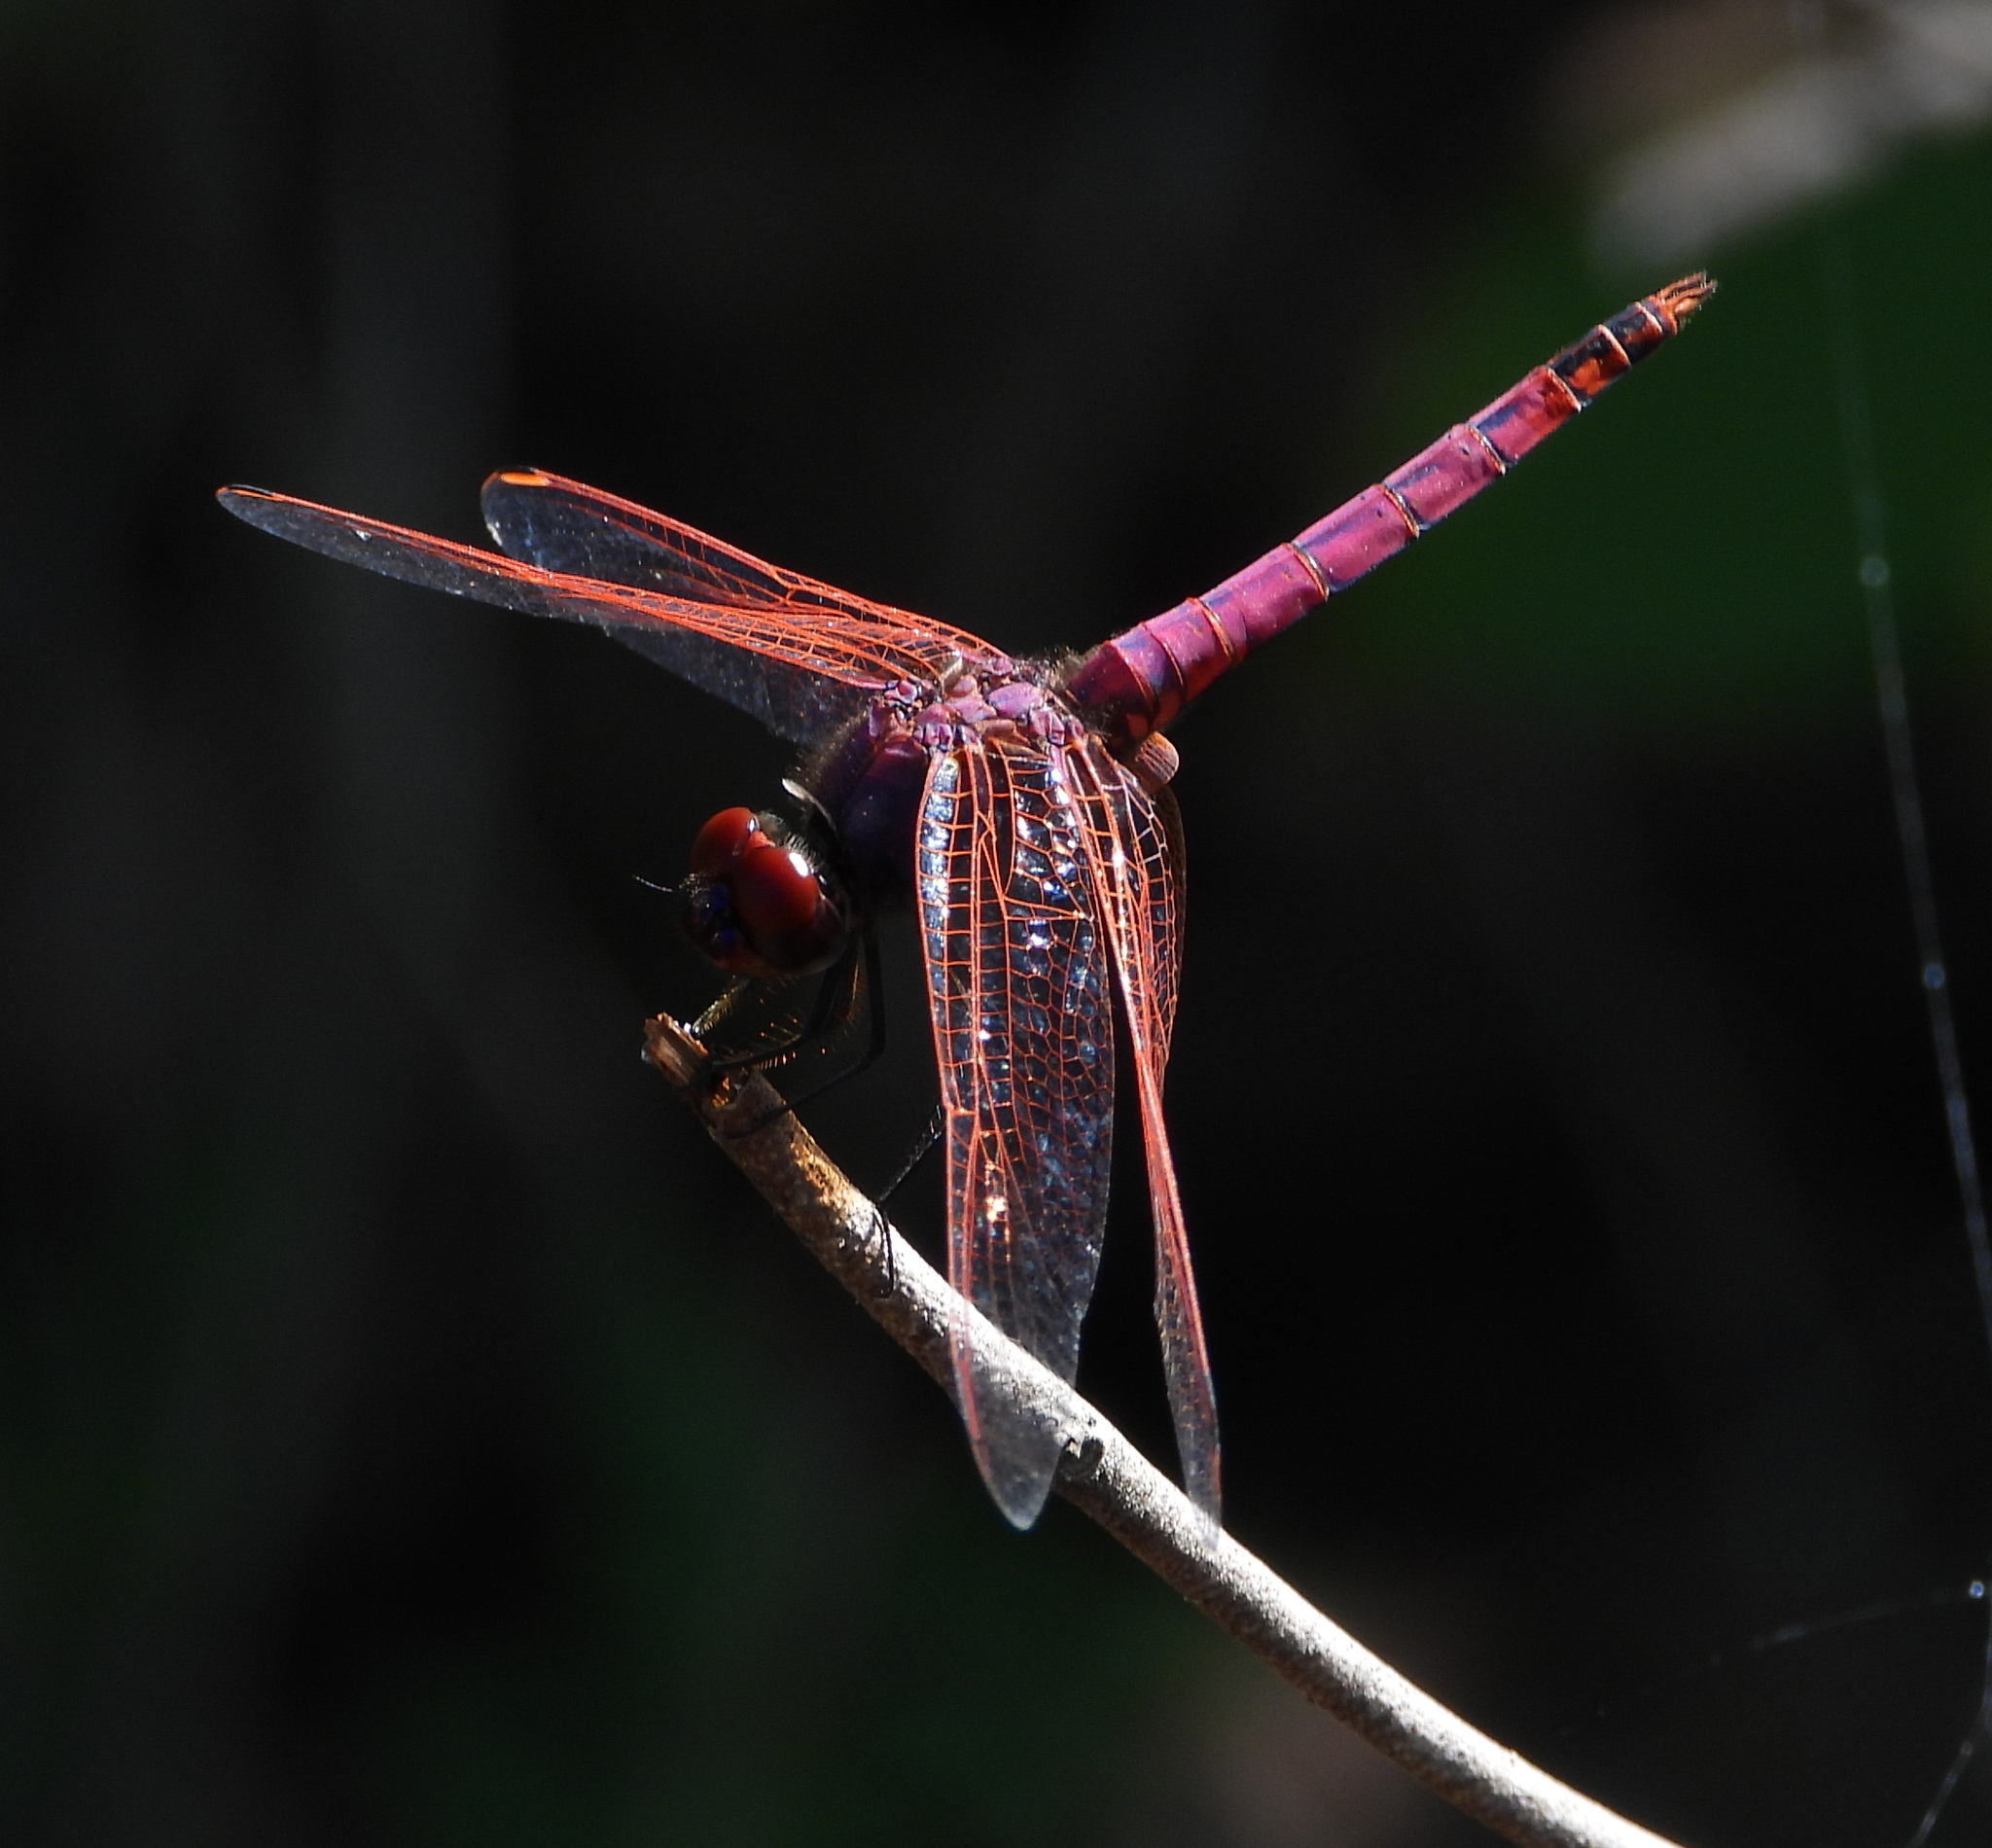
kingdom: Animalia
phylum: Arthropoda
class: Insecta
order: Odonata
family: Libellulidae
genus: Trithemis
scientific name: Trithemis annulata
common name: Violet dropwing
